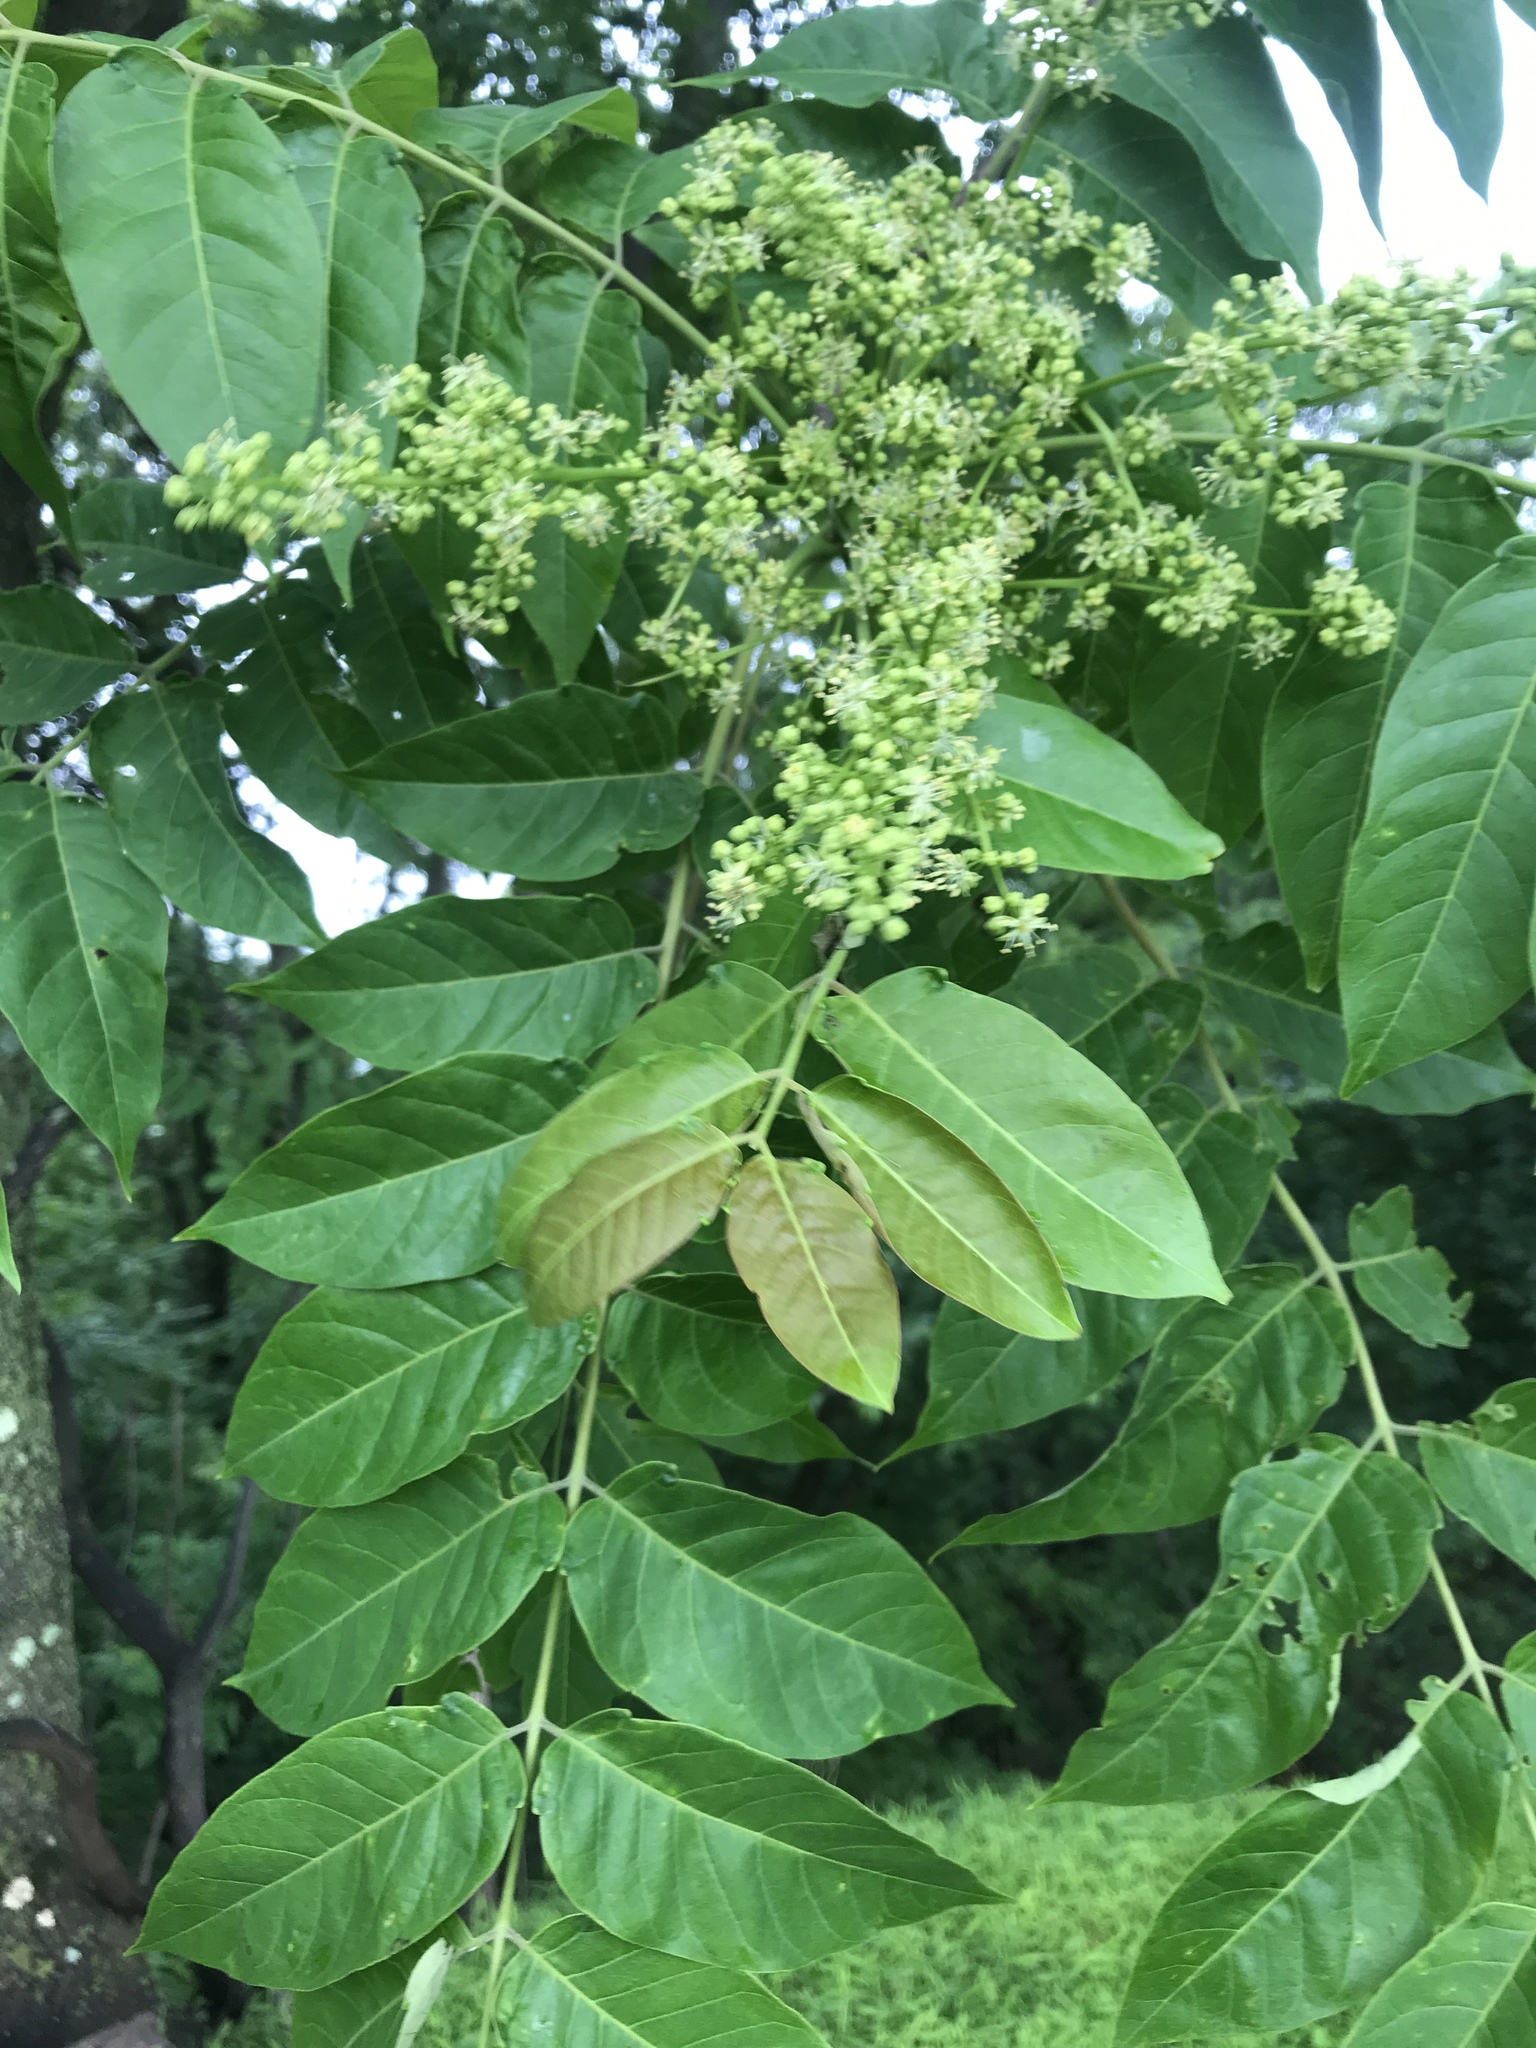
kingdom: Plantae
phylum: Tracheophyta
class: Magnoliopsida
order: Sapindales
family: Simaroubaceae
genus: Ailanthus
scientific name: Ailanthus altissima
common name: Tree-of-heaven
